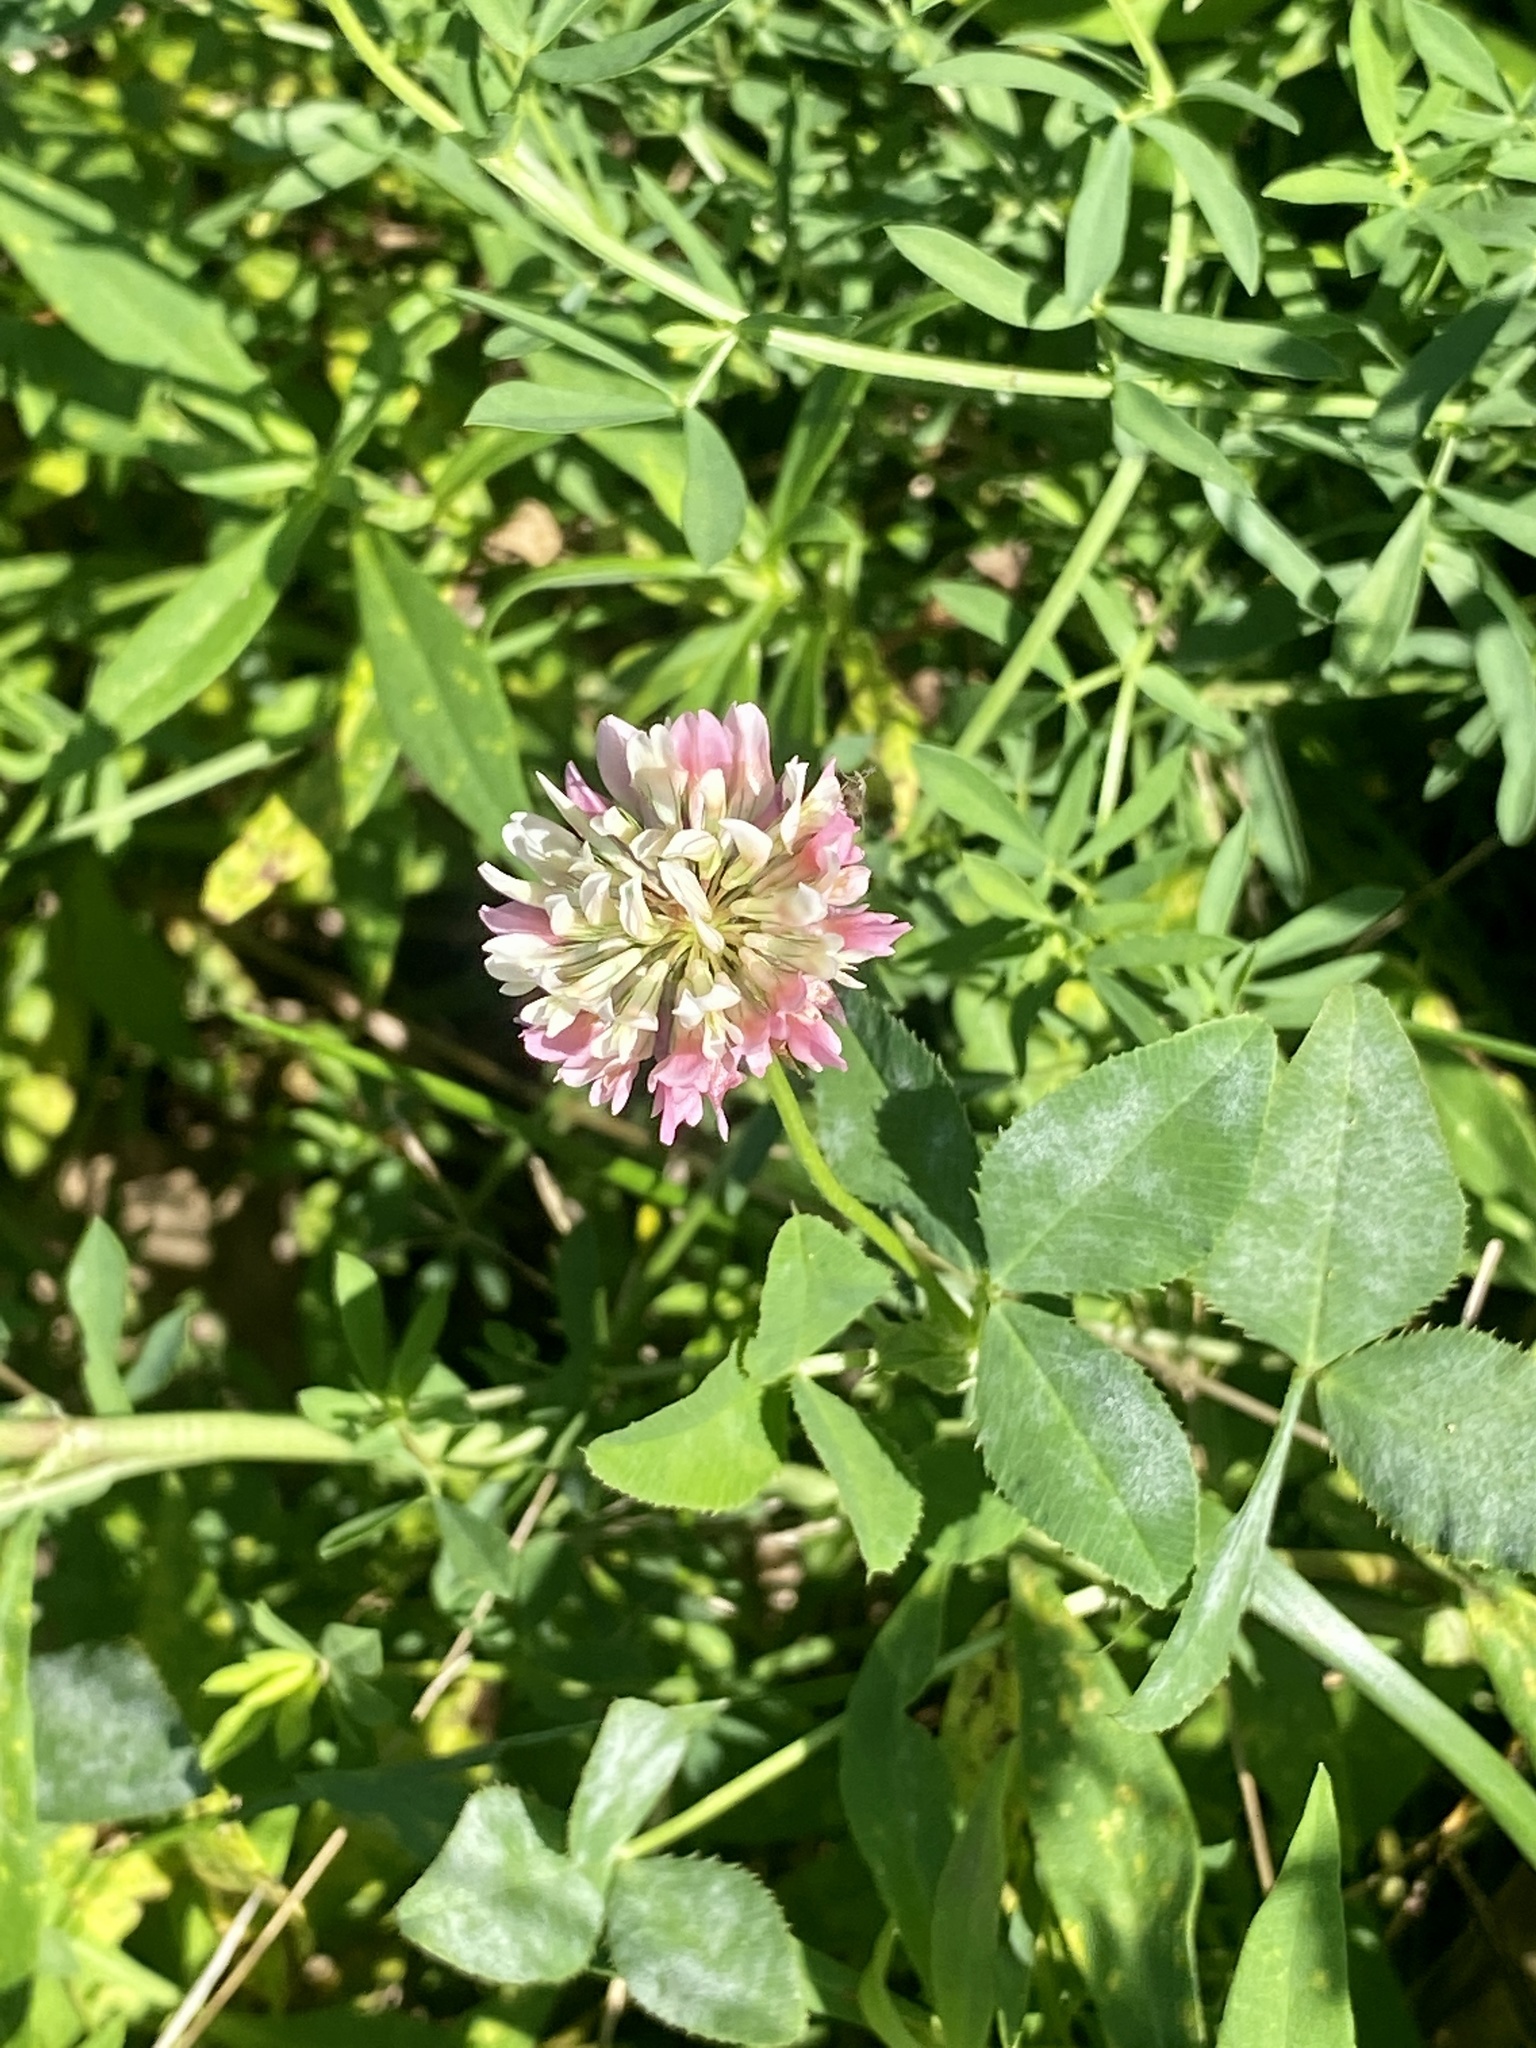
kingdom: Plantae
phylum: Tracheophyta
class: Magnoliopsida
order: Fabales
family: Fabaceae
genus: Trifolium
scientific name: Trifolium hybridum
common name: Alsike clover
